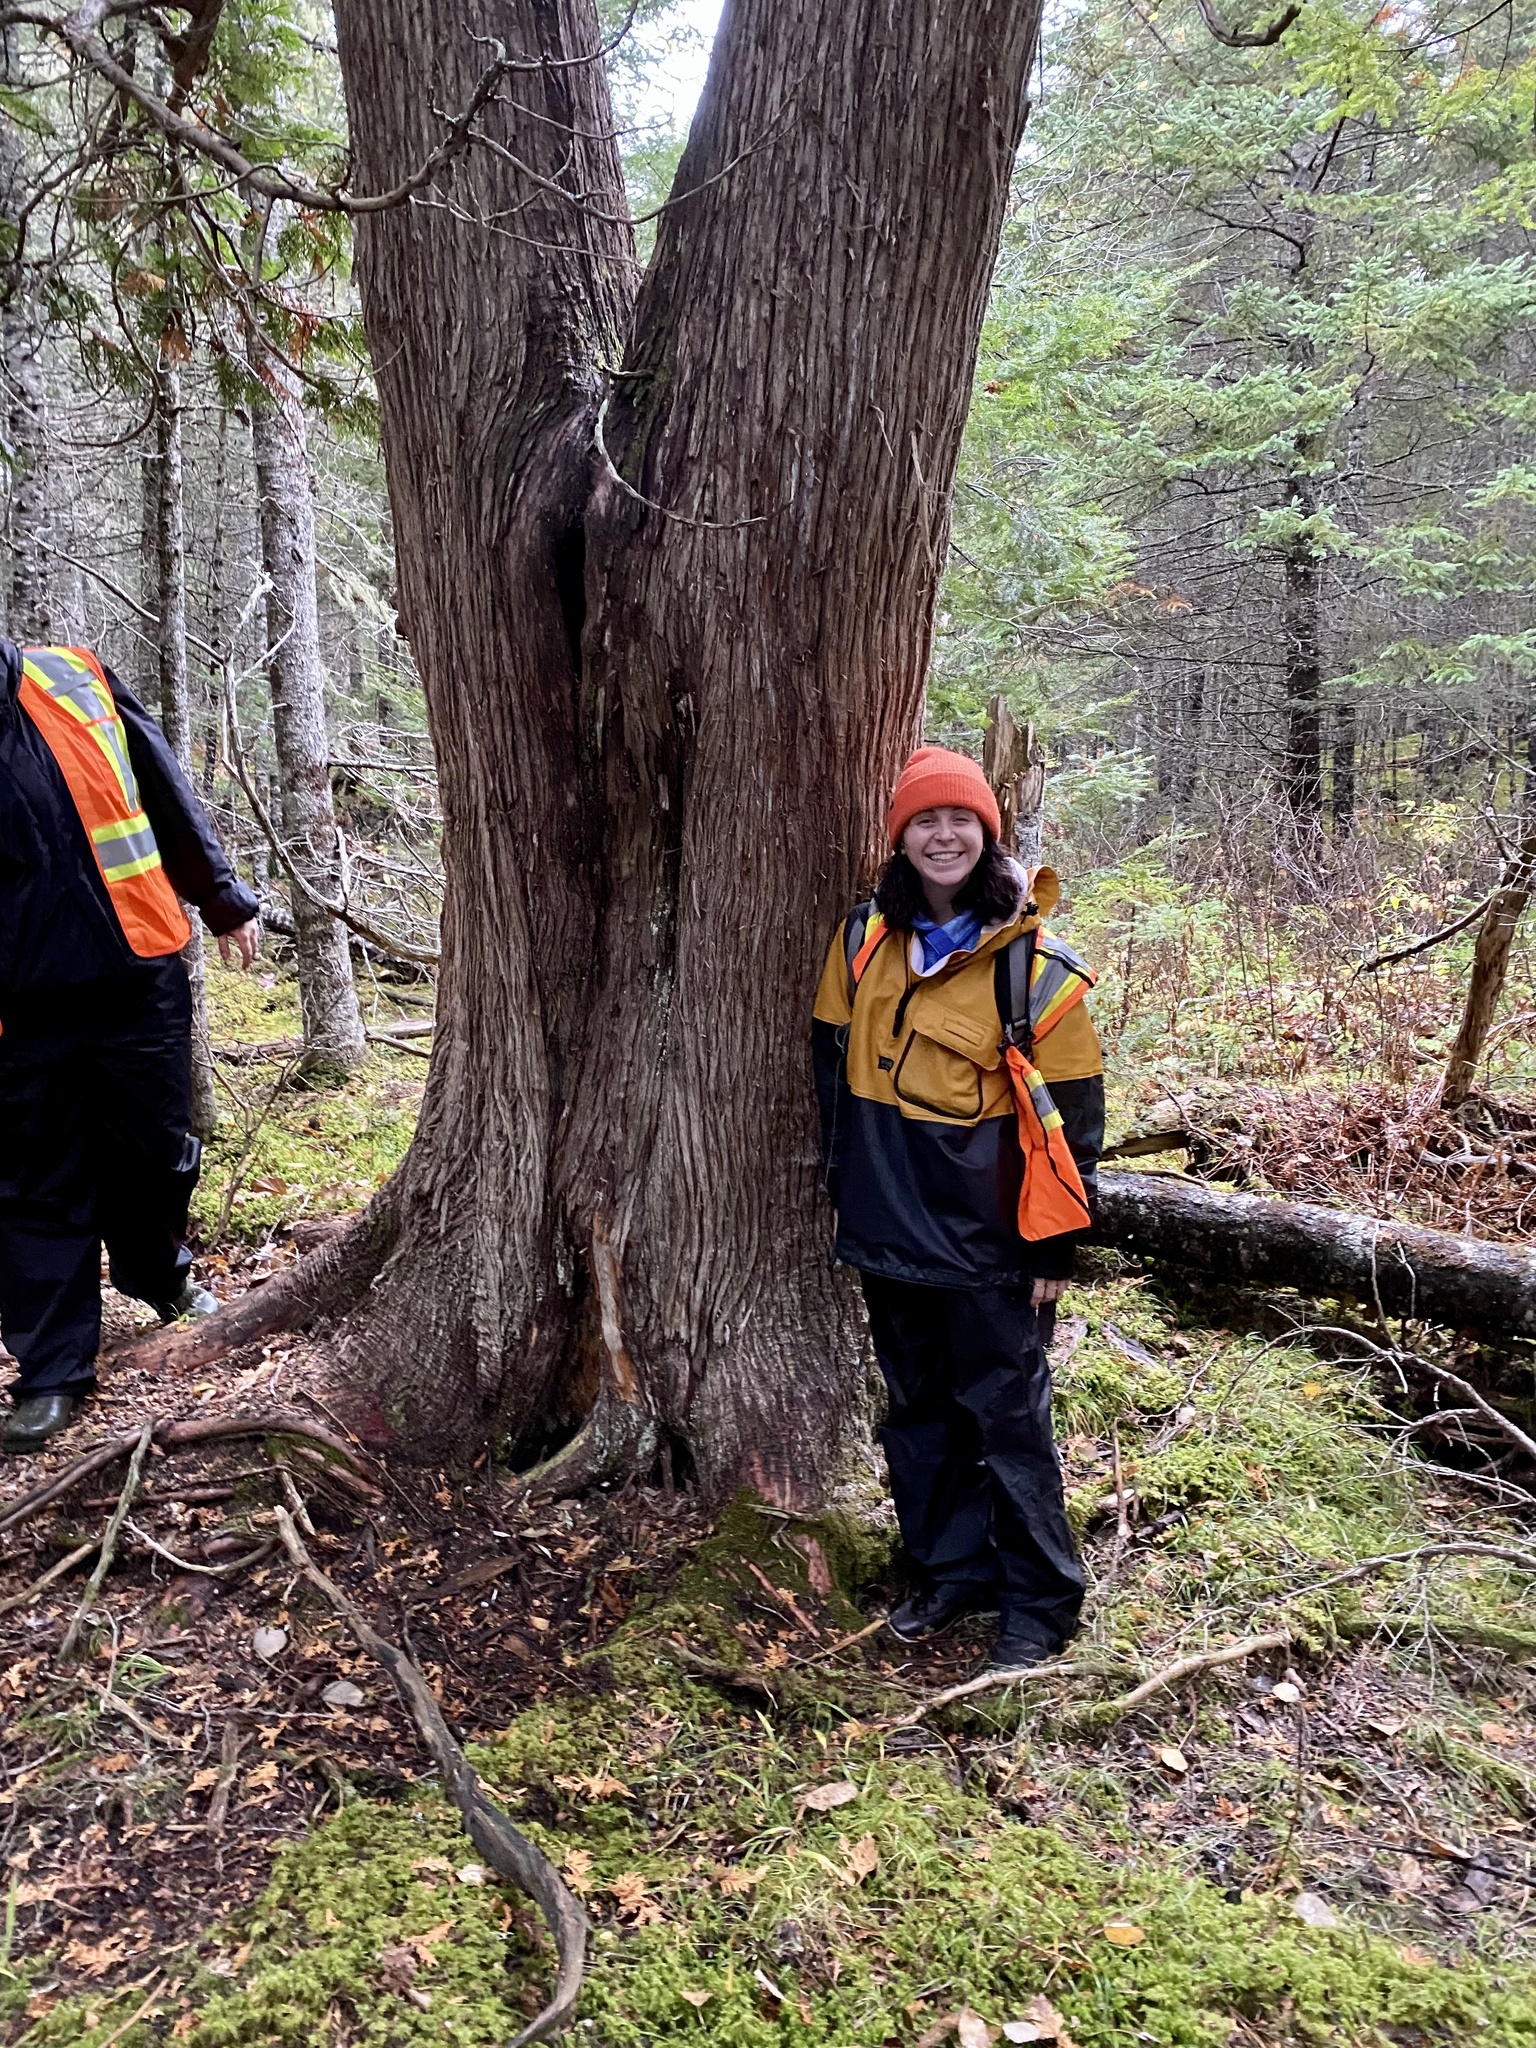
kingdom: Plantae
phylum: Tracheophyta
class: Pinopsida
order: Pinales
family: Cupressaceae
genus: Thuja
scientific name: Thuja occidentalis
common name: Northern white-cedar
